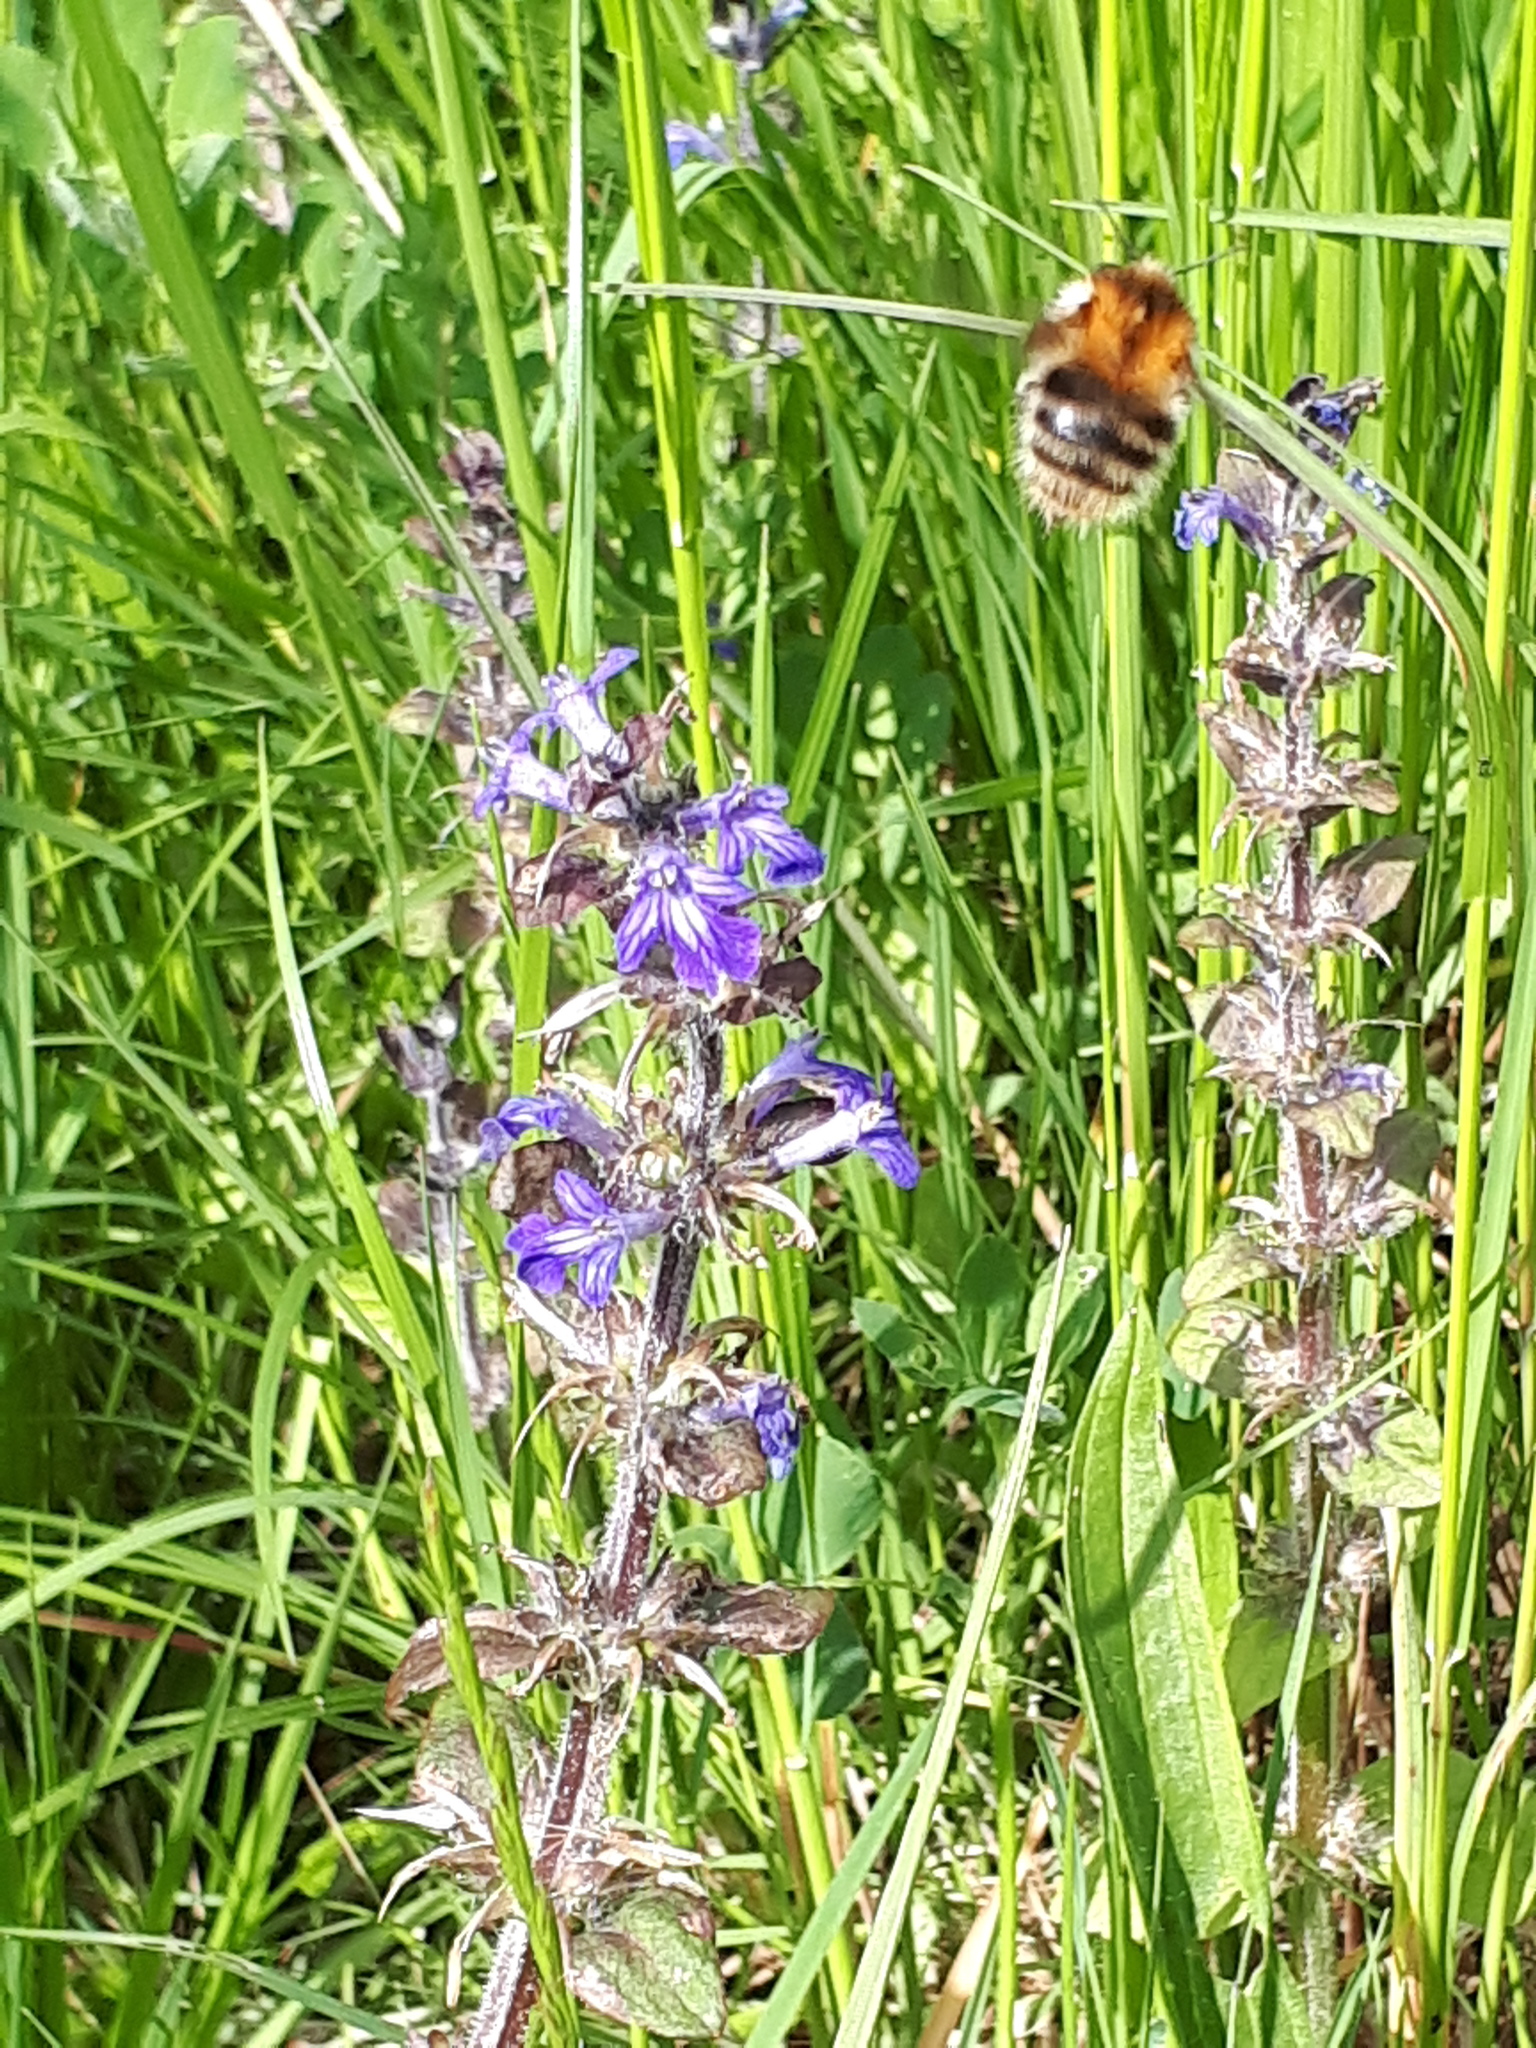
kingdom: Animalia
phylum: Arthropoda
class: Insecta
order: Hymenoptera
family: Apidae
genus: Bombus
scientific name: Bombus pascuorum
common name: Common carder bee
